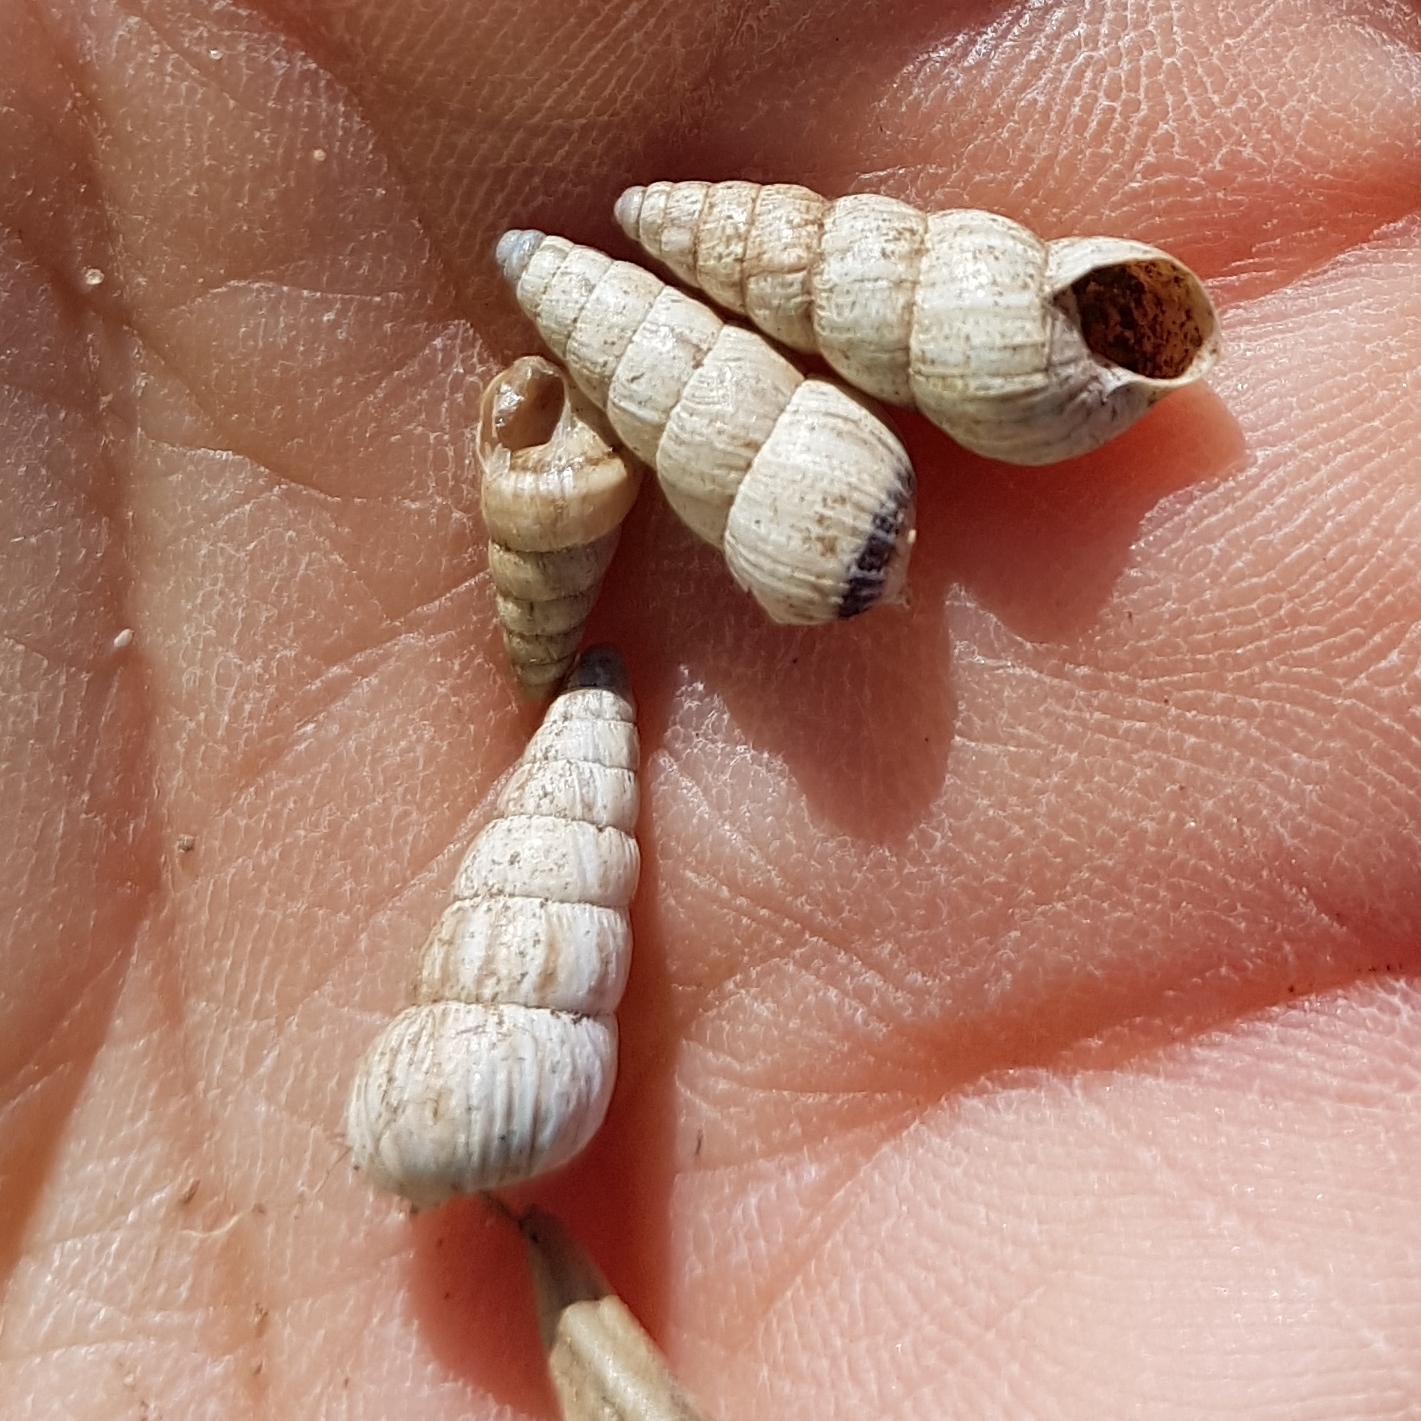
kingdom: Animalia
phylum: Mollusca
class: Gastropoda
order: Stylommatophora
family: Geomitridae
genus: Cochlicella
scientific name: Cochlicella acuta
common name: Pointed snail
